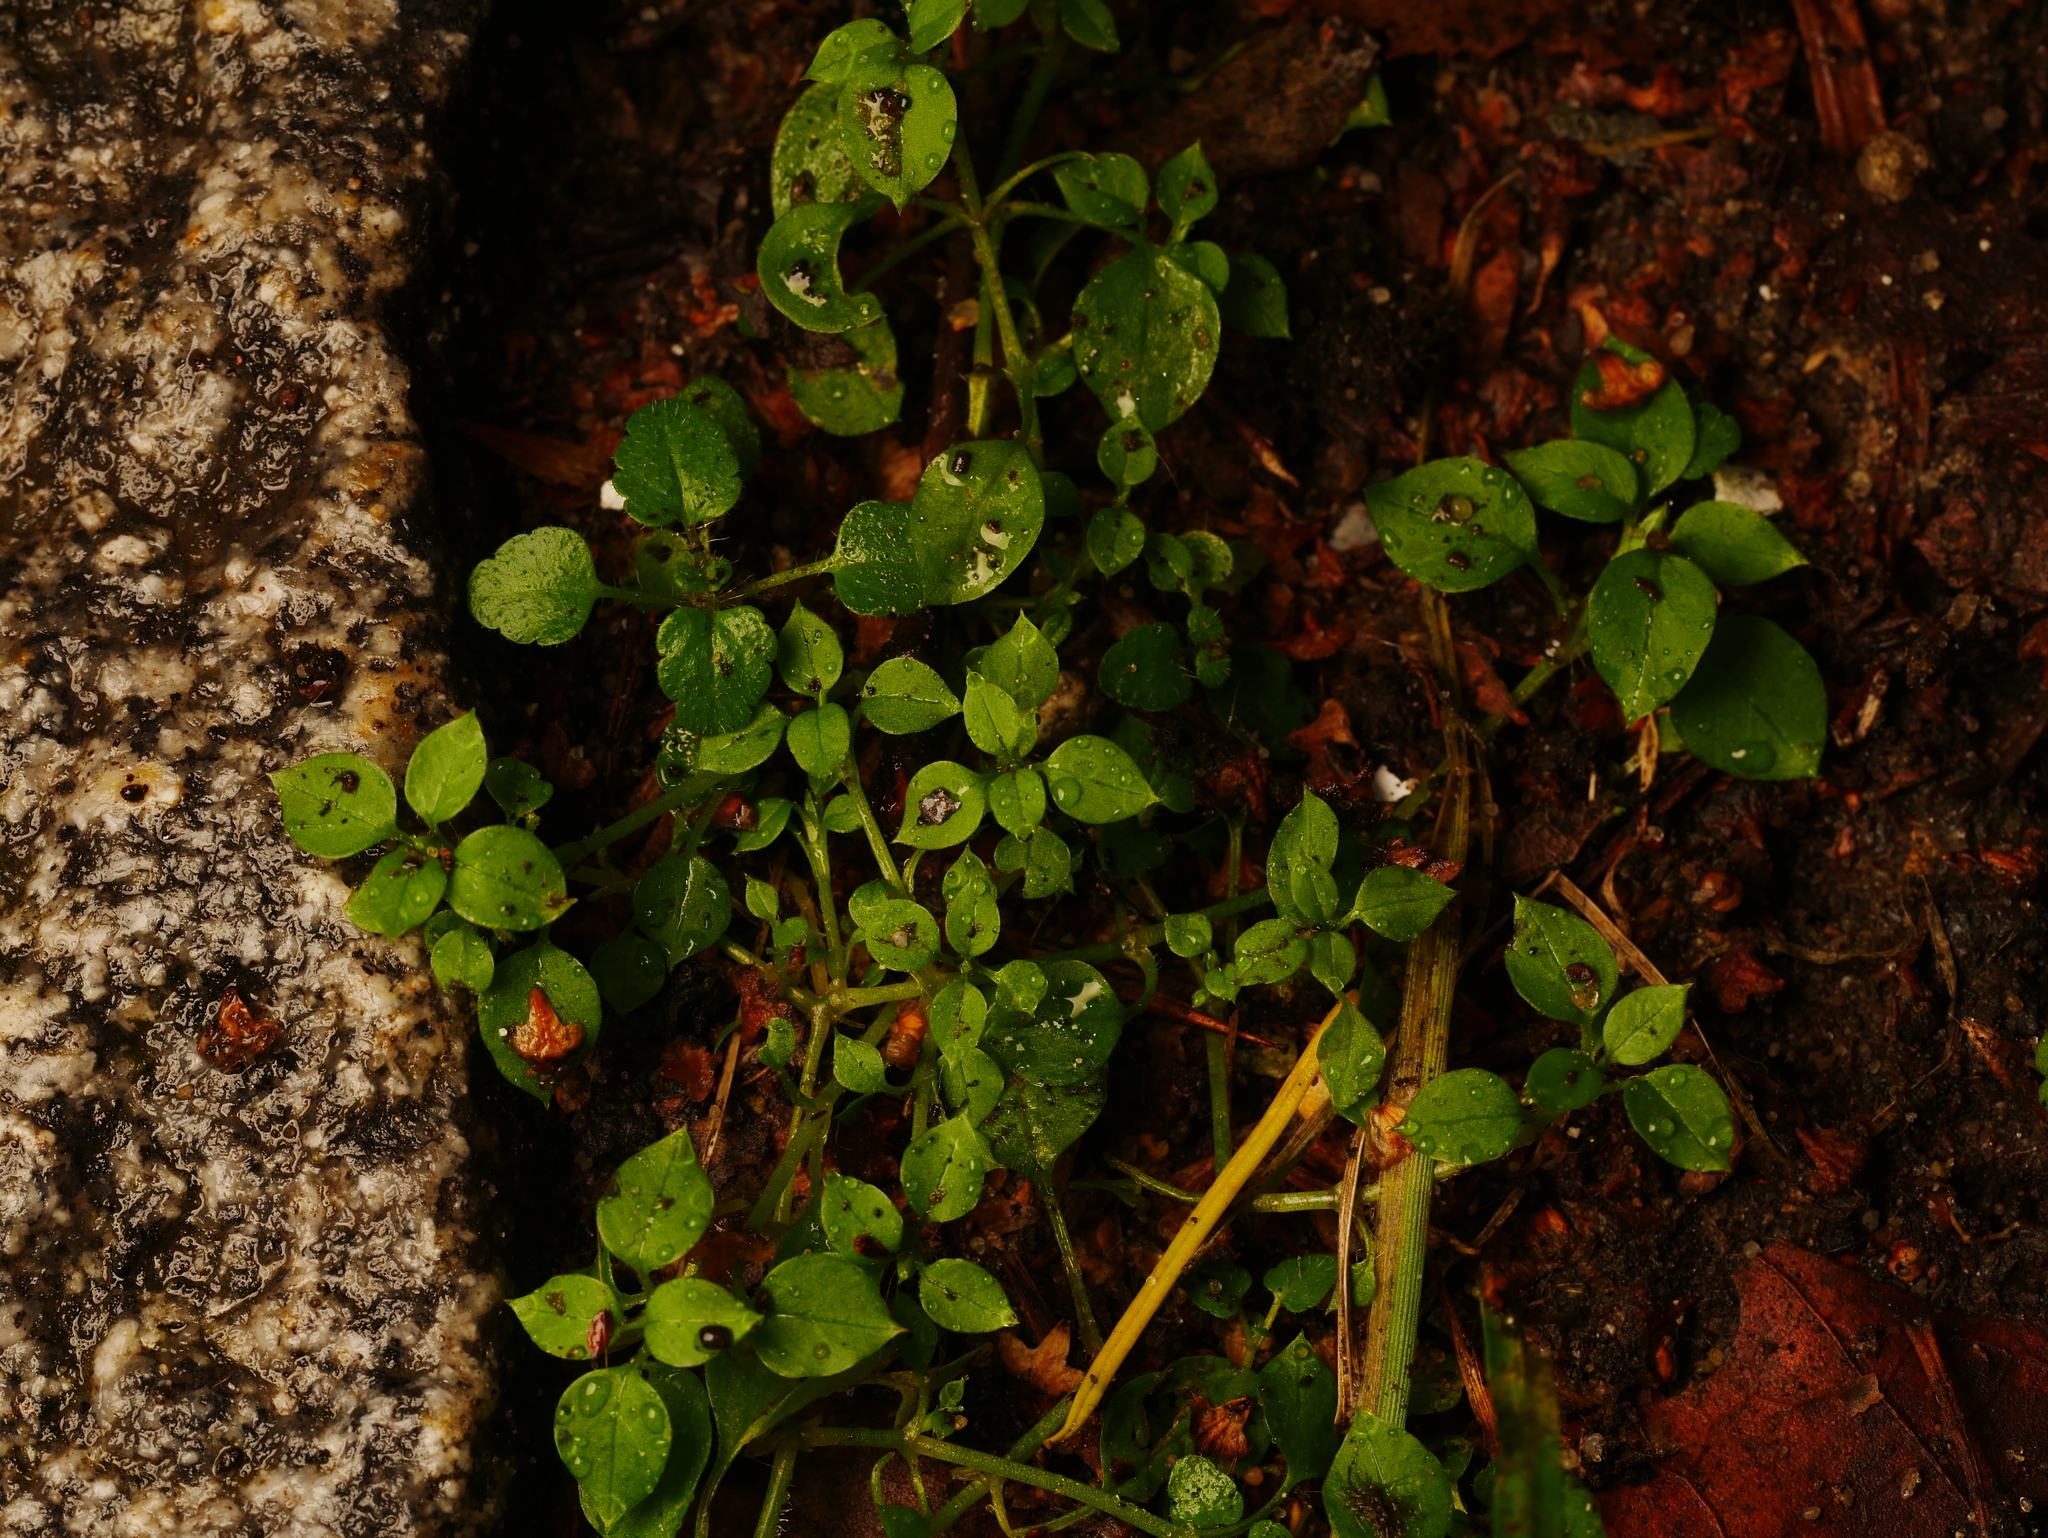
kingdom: Plantae
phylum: Tracheophyta
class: Magnoliopsida
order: Caryophyllales
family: Caryophyllaceae
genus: Stellaria
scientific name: Stellaria media
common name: Common chickweed
